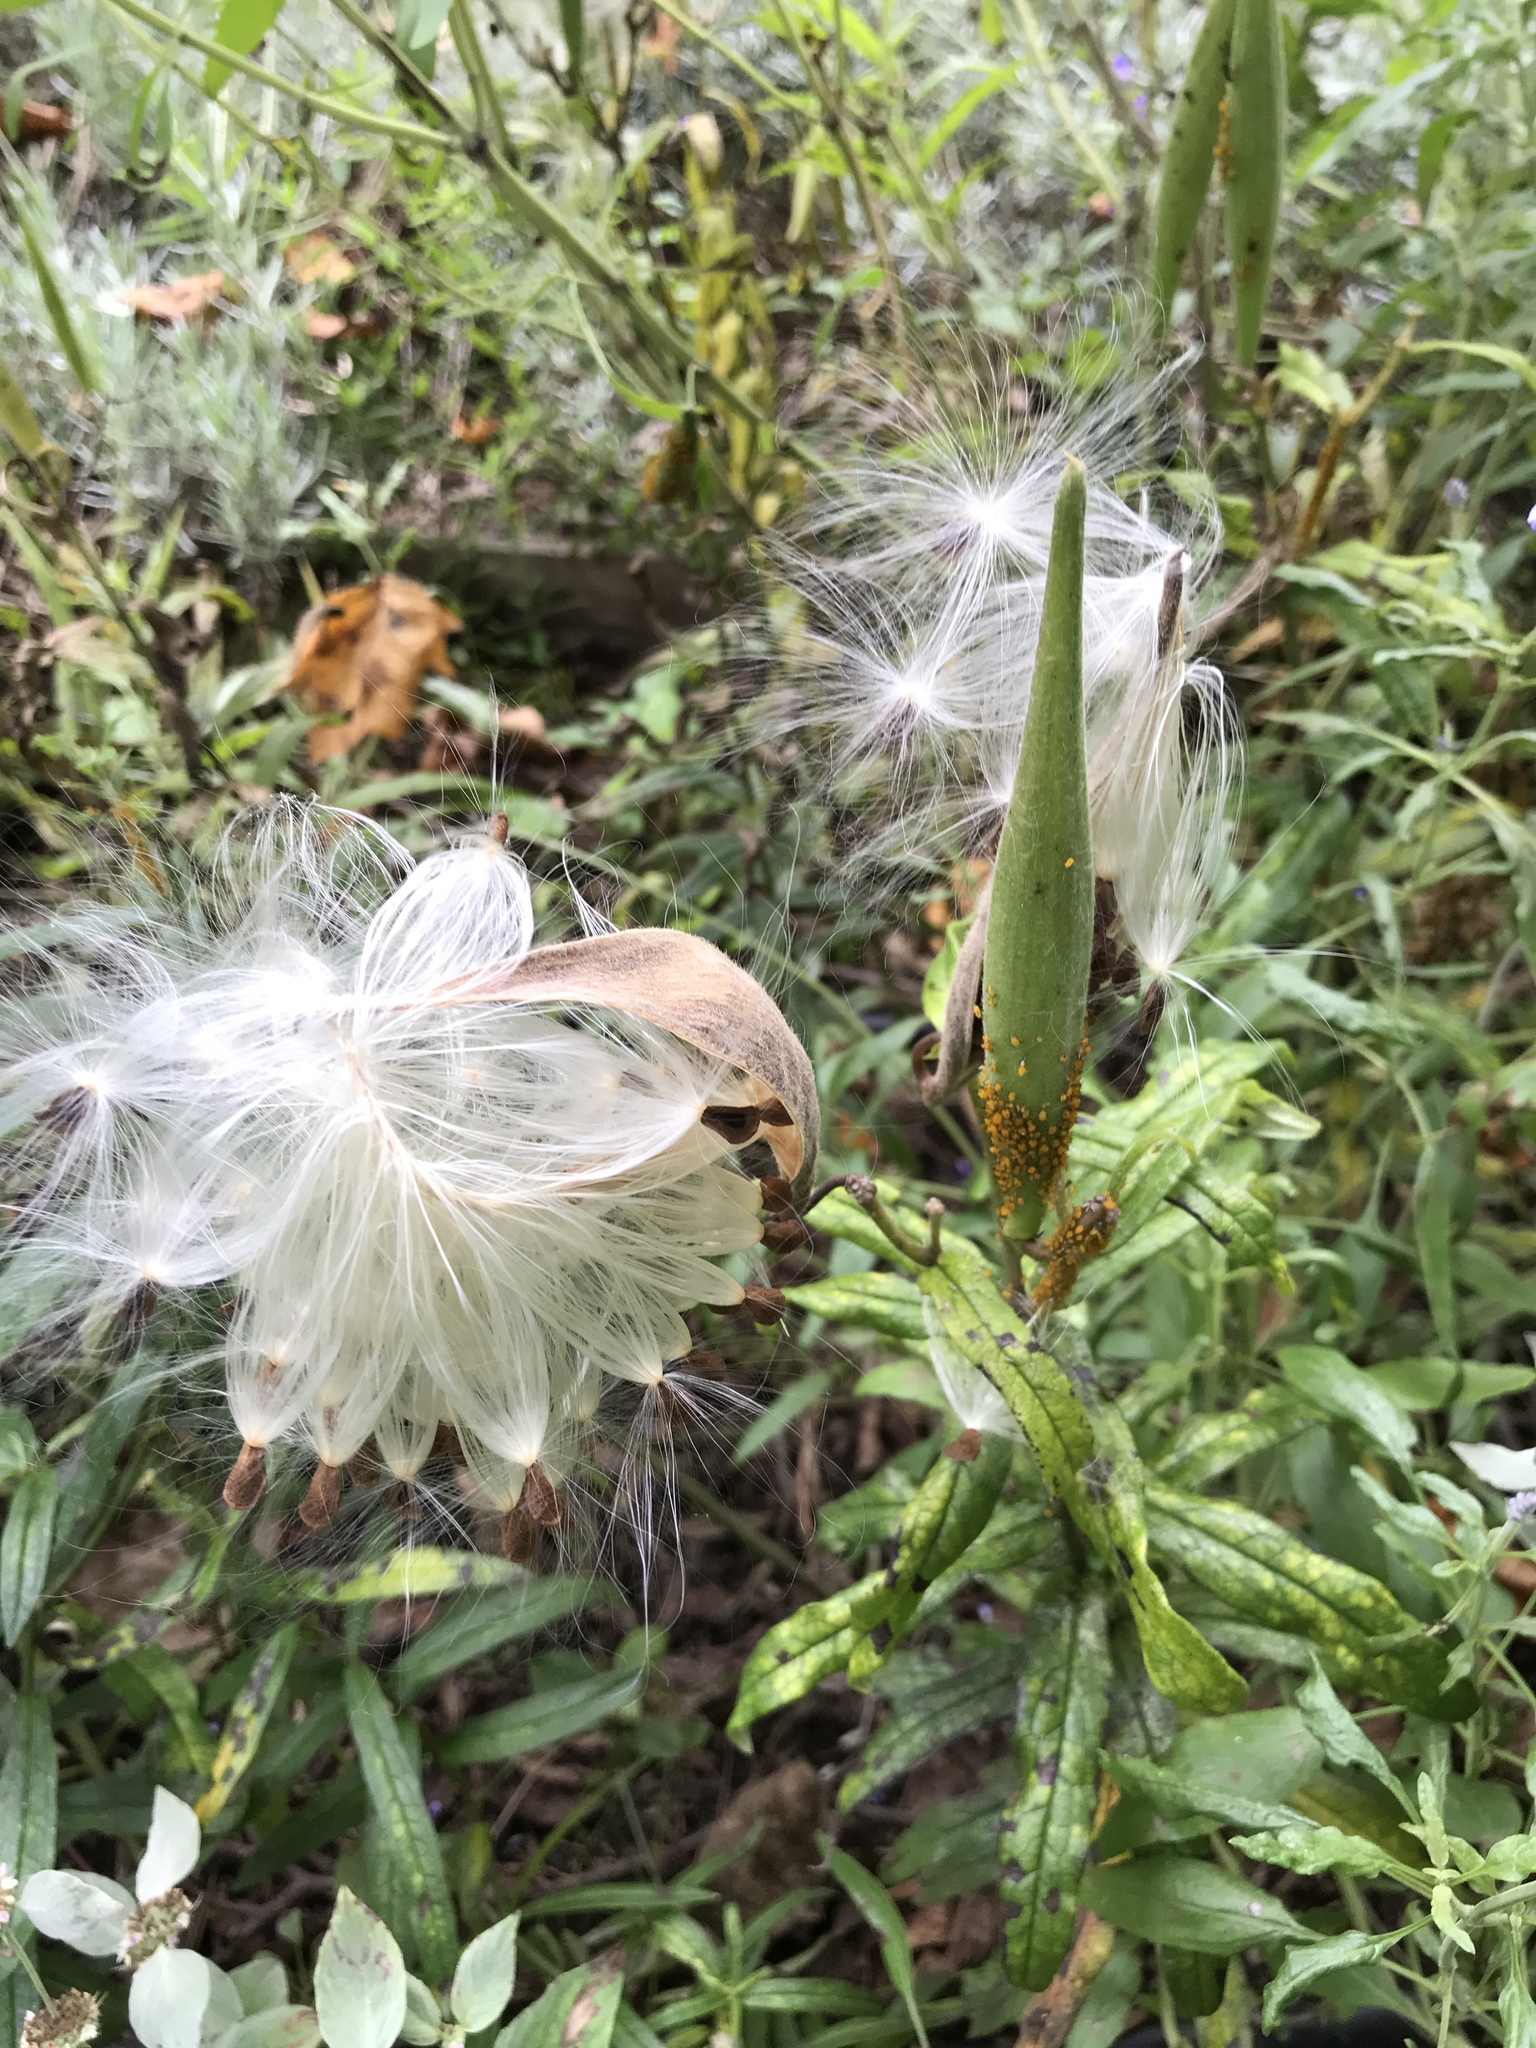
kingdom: Plantae
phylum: Tracheophyta
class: Magnoliopsida
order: Gentianales
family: Apocynaceae
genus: Asclepias
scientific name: Asclepias tuberosa
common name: Butterfly milkweed
